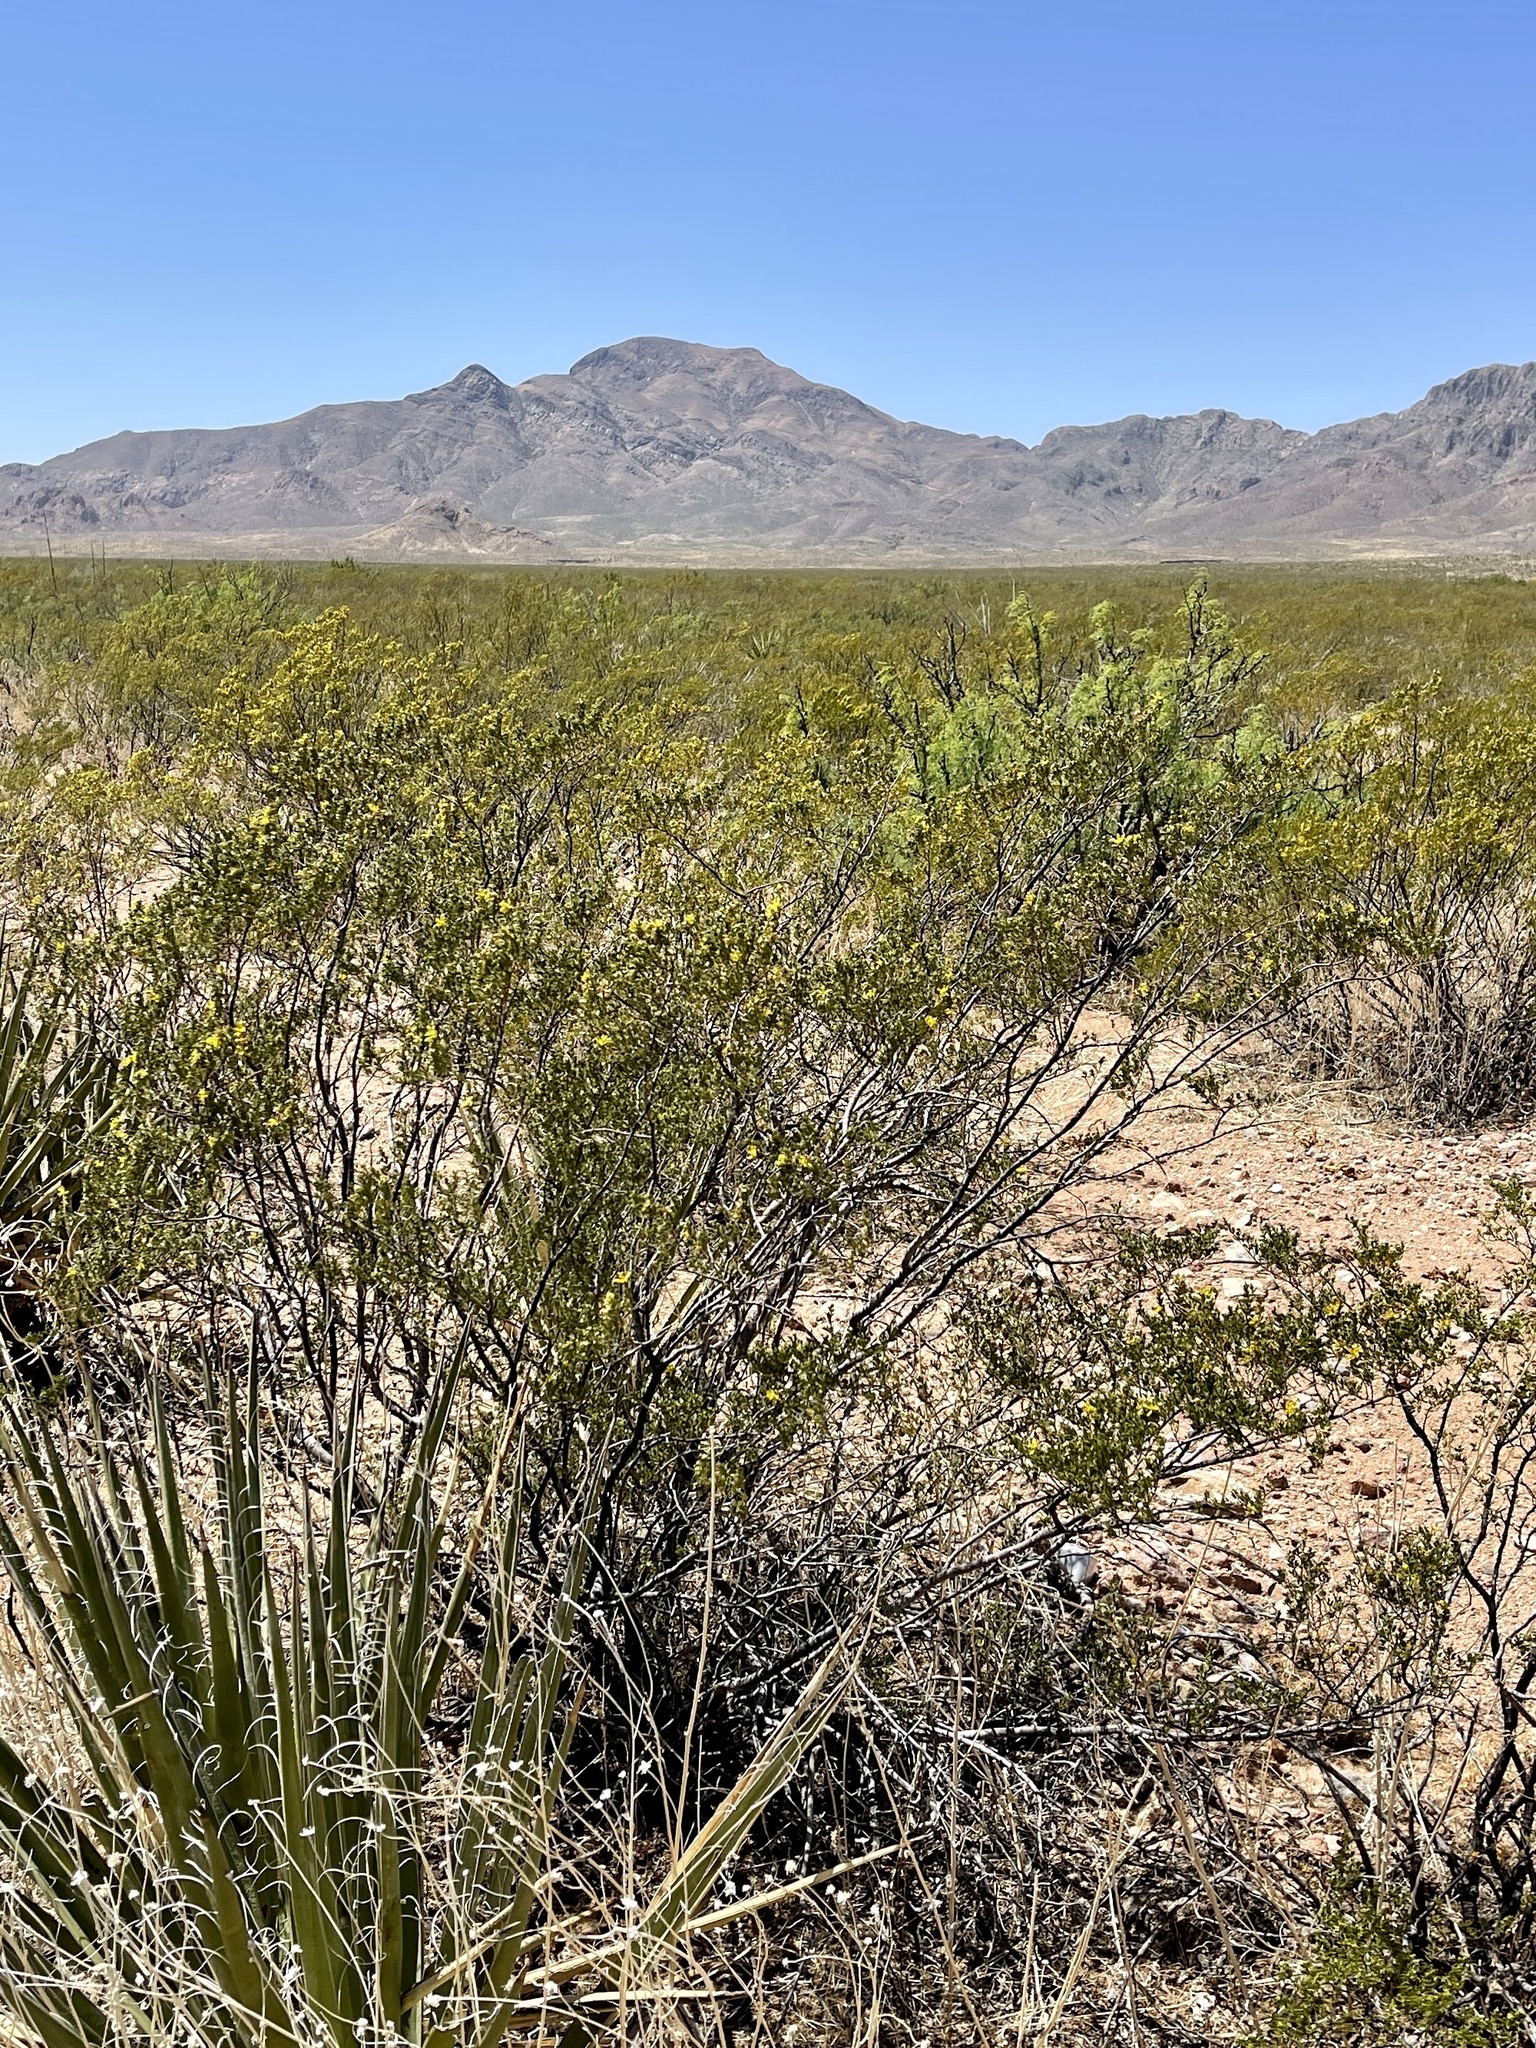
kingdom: Plantae
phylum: Tracheophyta
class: Magnoliopsida
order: Zygophyllales
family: Zygophyllaceae
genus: Larrea
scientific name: Larrea tridentata
